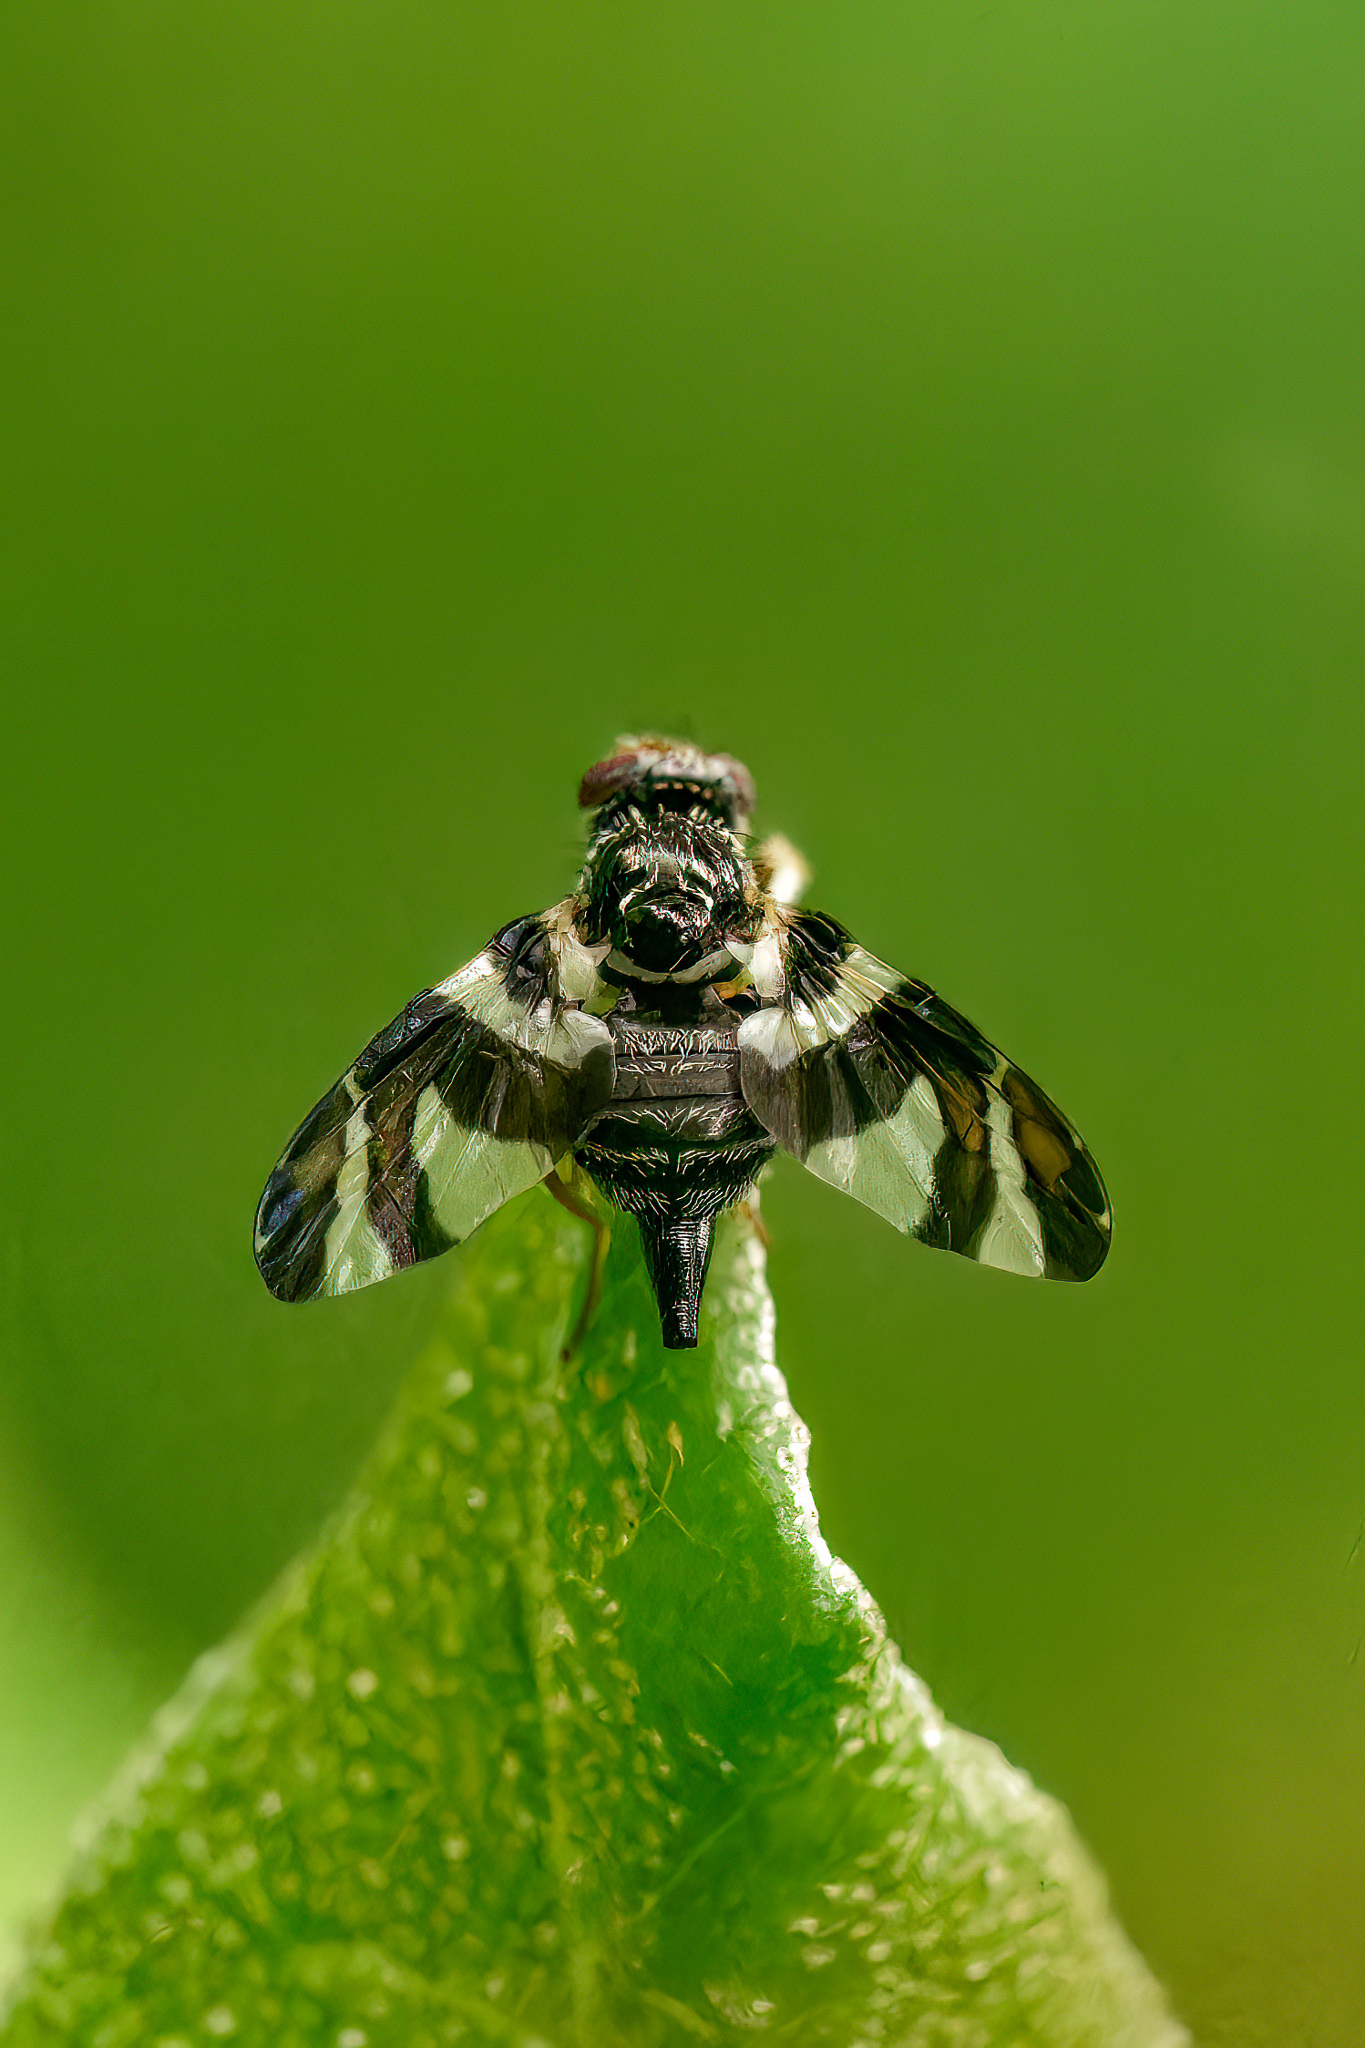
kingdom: Animalia
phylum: Arthropoda
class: Insecta
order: Diptera
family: Tephritidae
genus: Procecidochares
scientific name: Procecidochares atra
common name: Goldenrod brussels sprout gall fly
